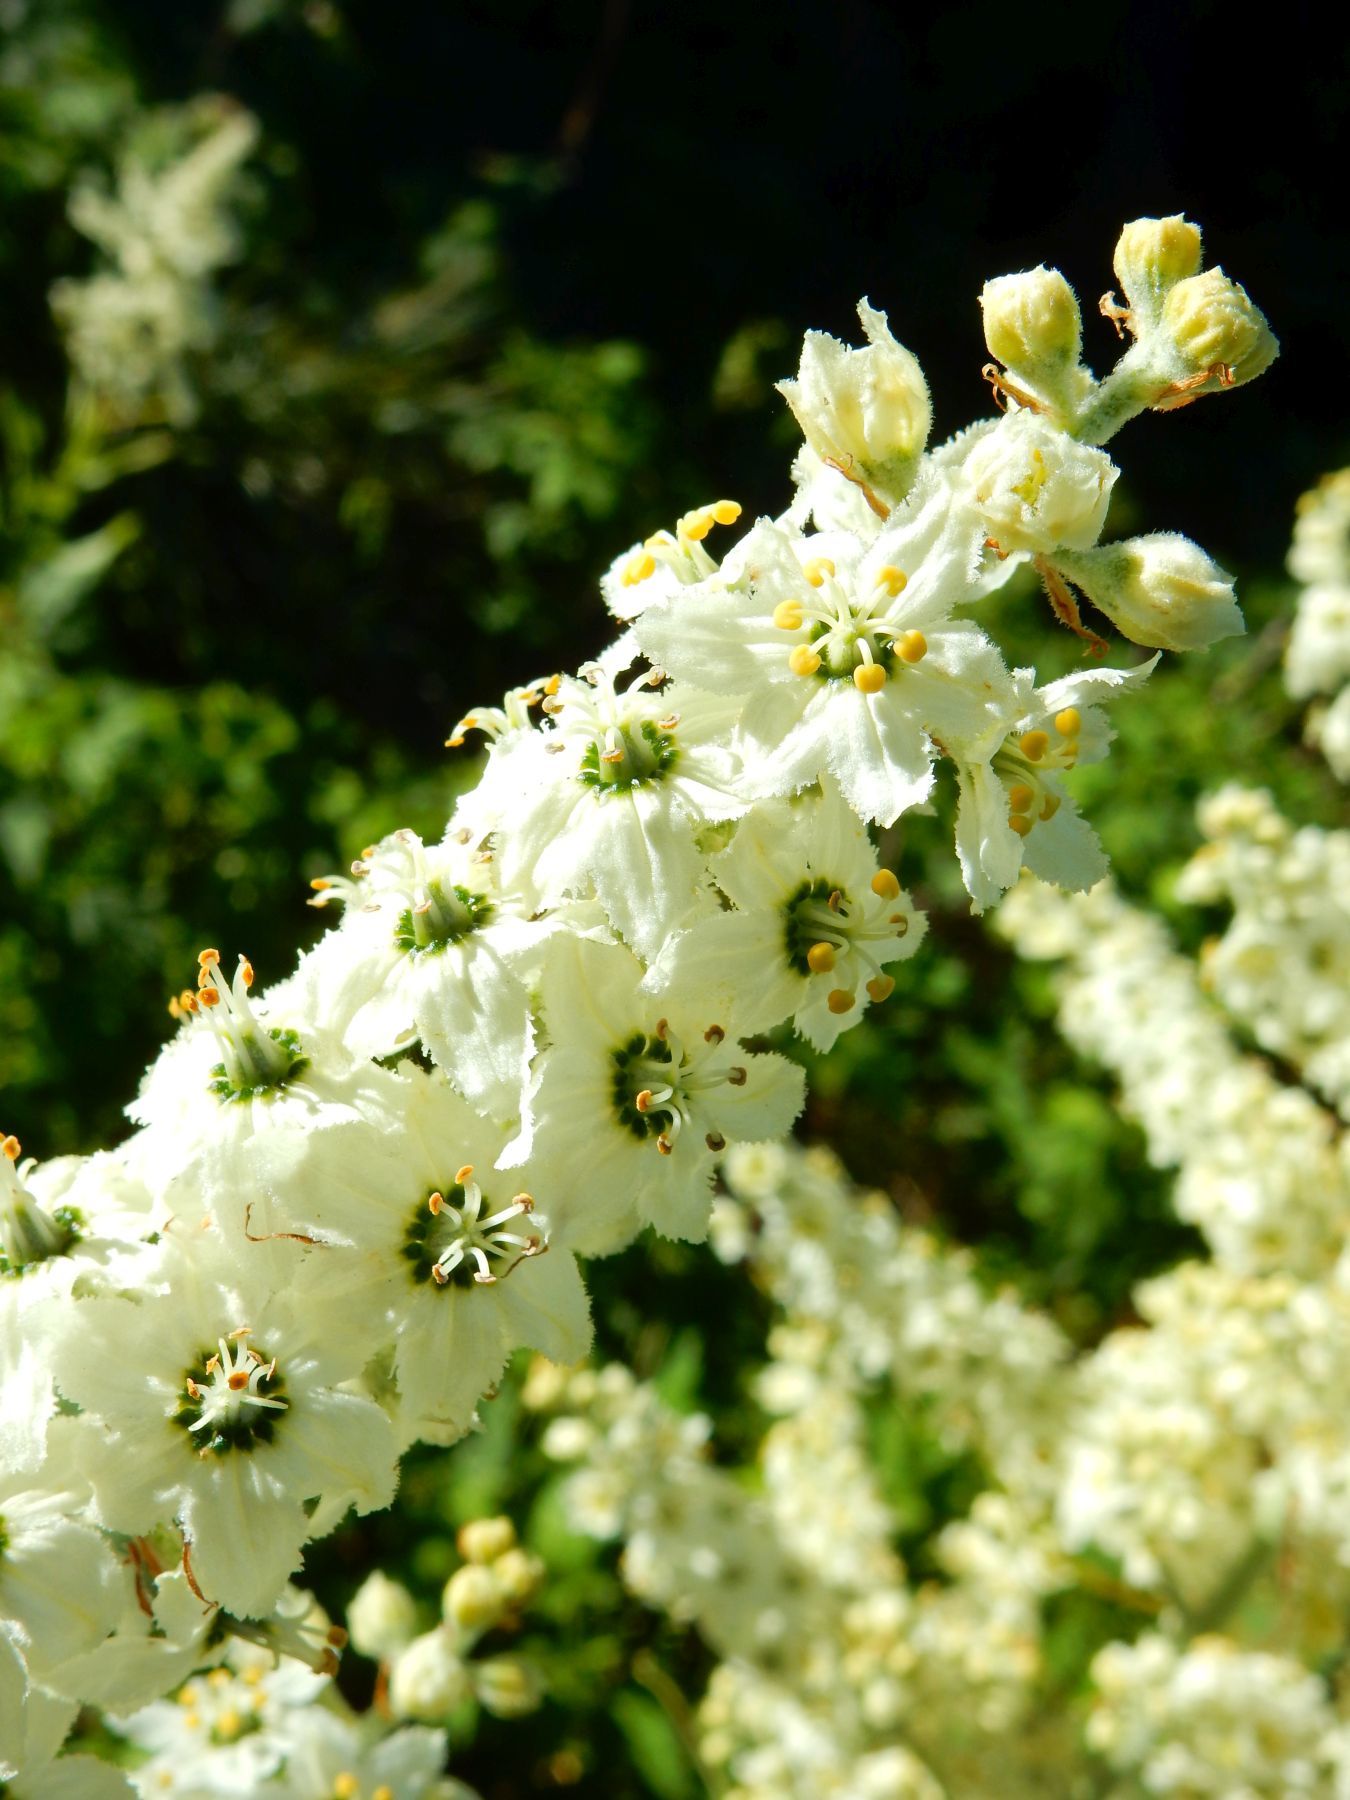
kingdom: Plantae
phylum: Tracheophyta
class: Liliopsida
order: Liliales
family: Melanthiaceae
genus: Veratrum
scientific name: Veratrum insolitum
